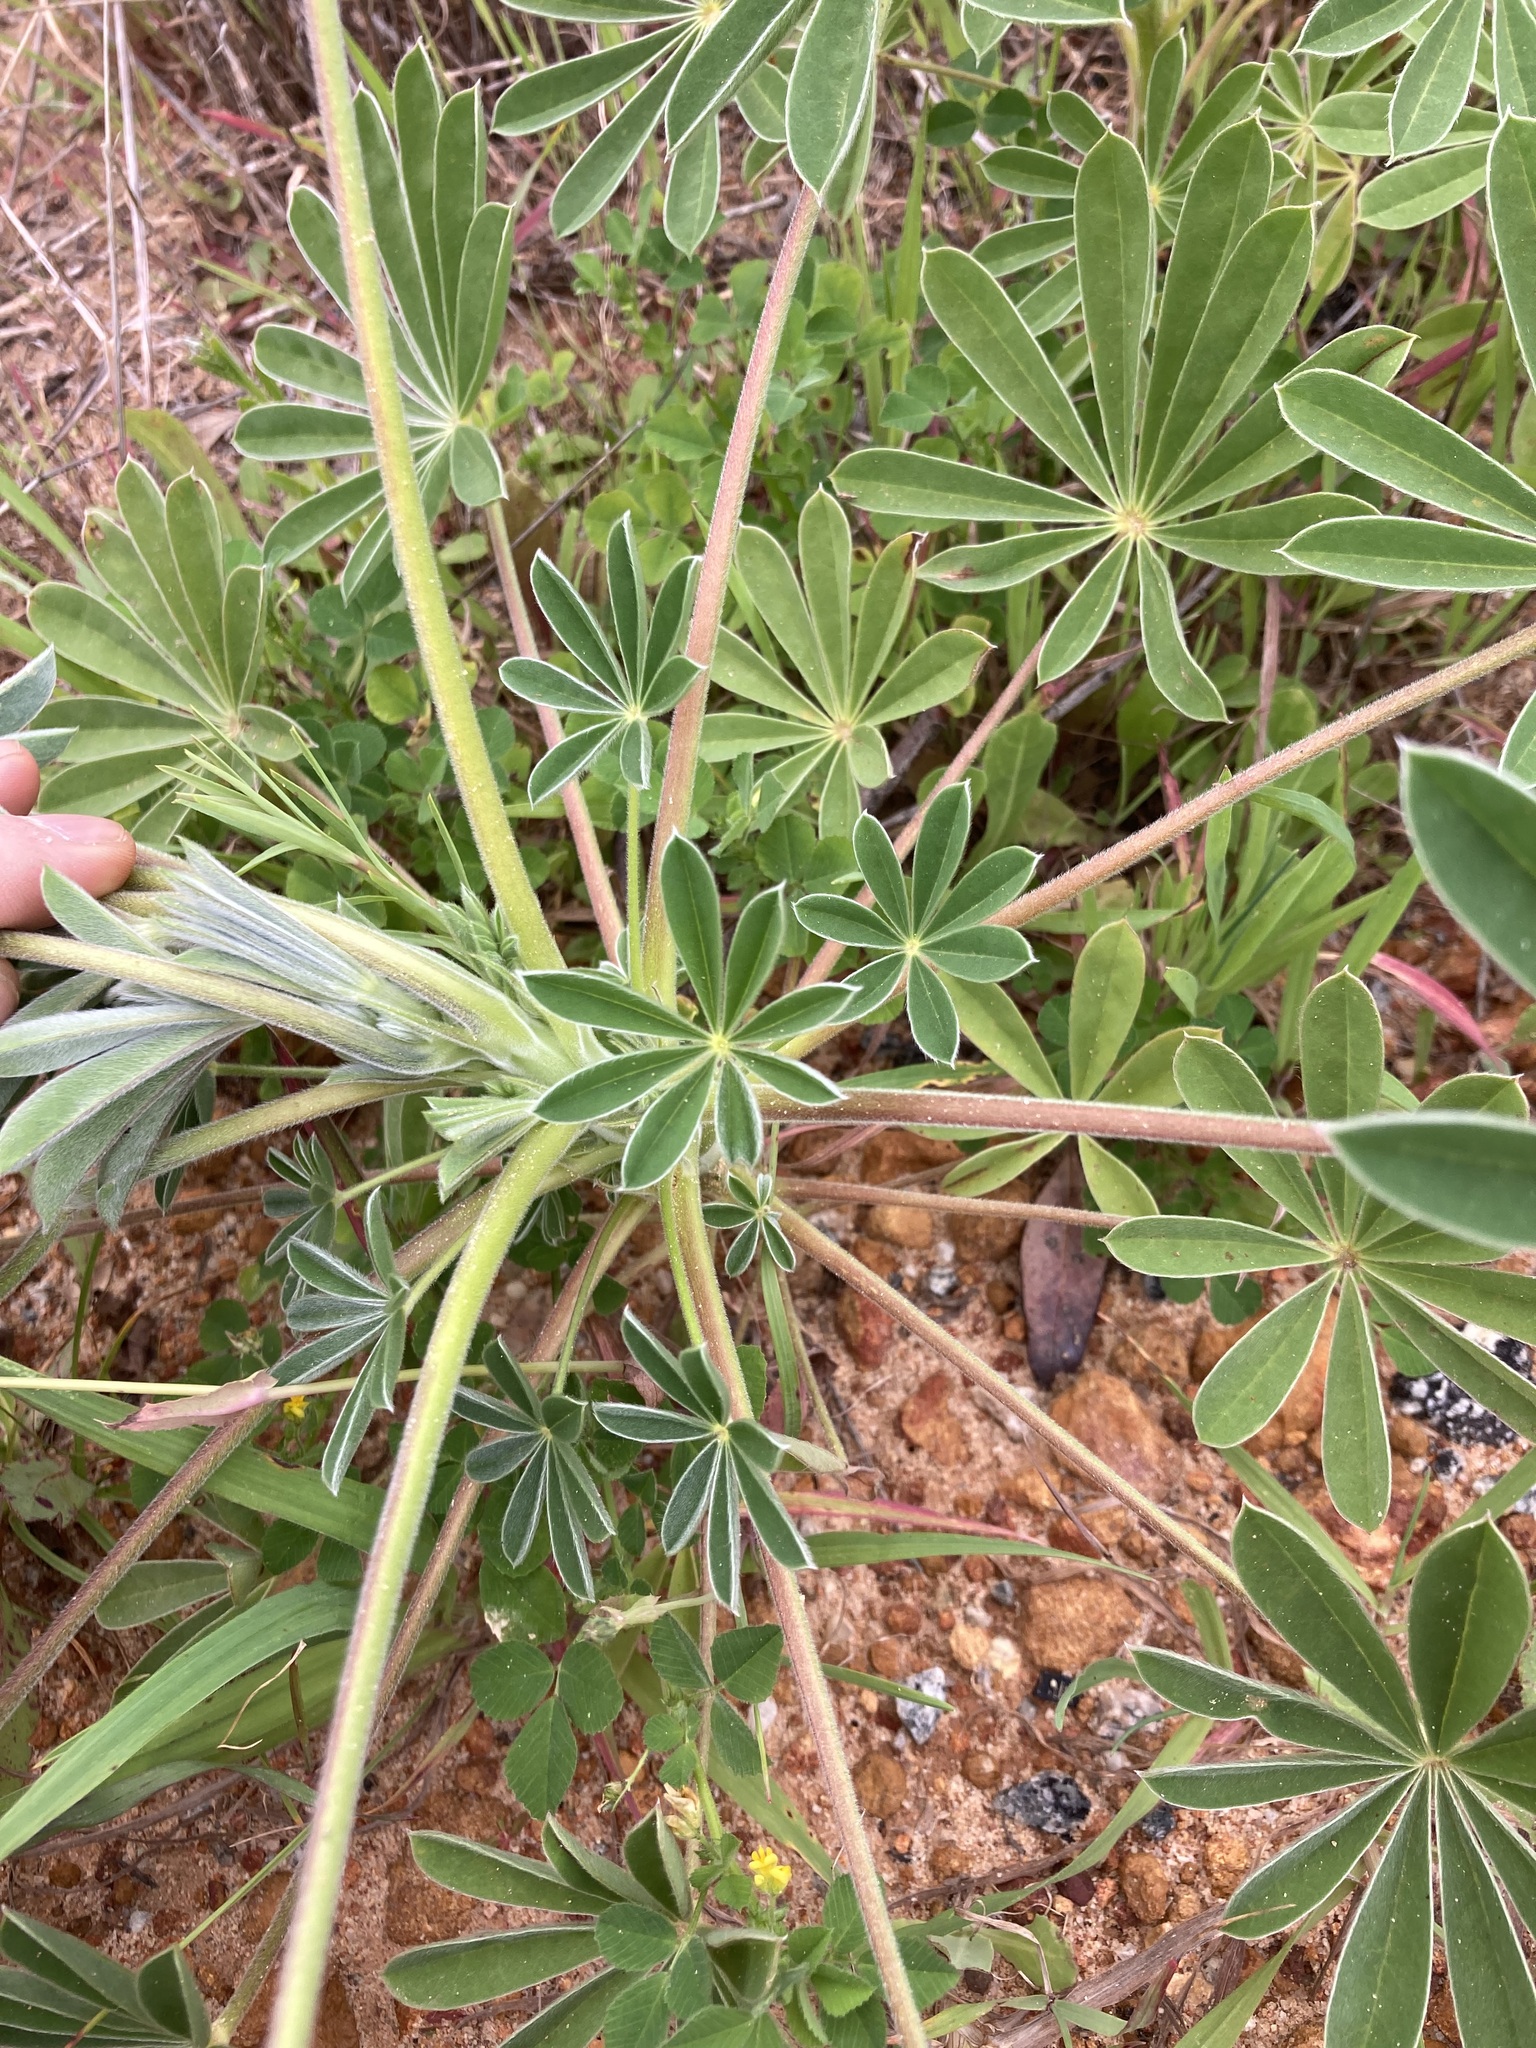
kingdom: Plantae
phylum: Tracheophyta
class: Magnoliopsida
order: Fabales
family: Fabaceae
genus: Lupinus
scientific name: Lupinus cosentinii
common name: Hairy blue lupin
